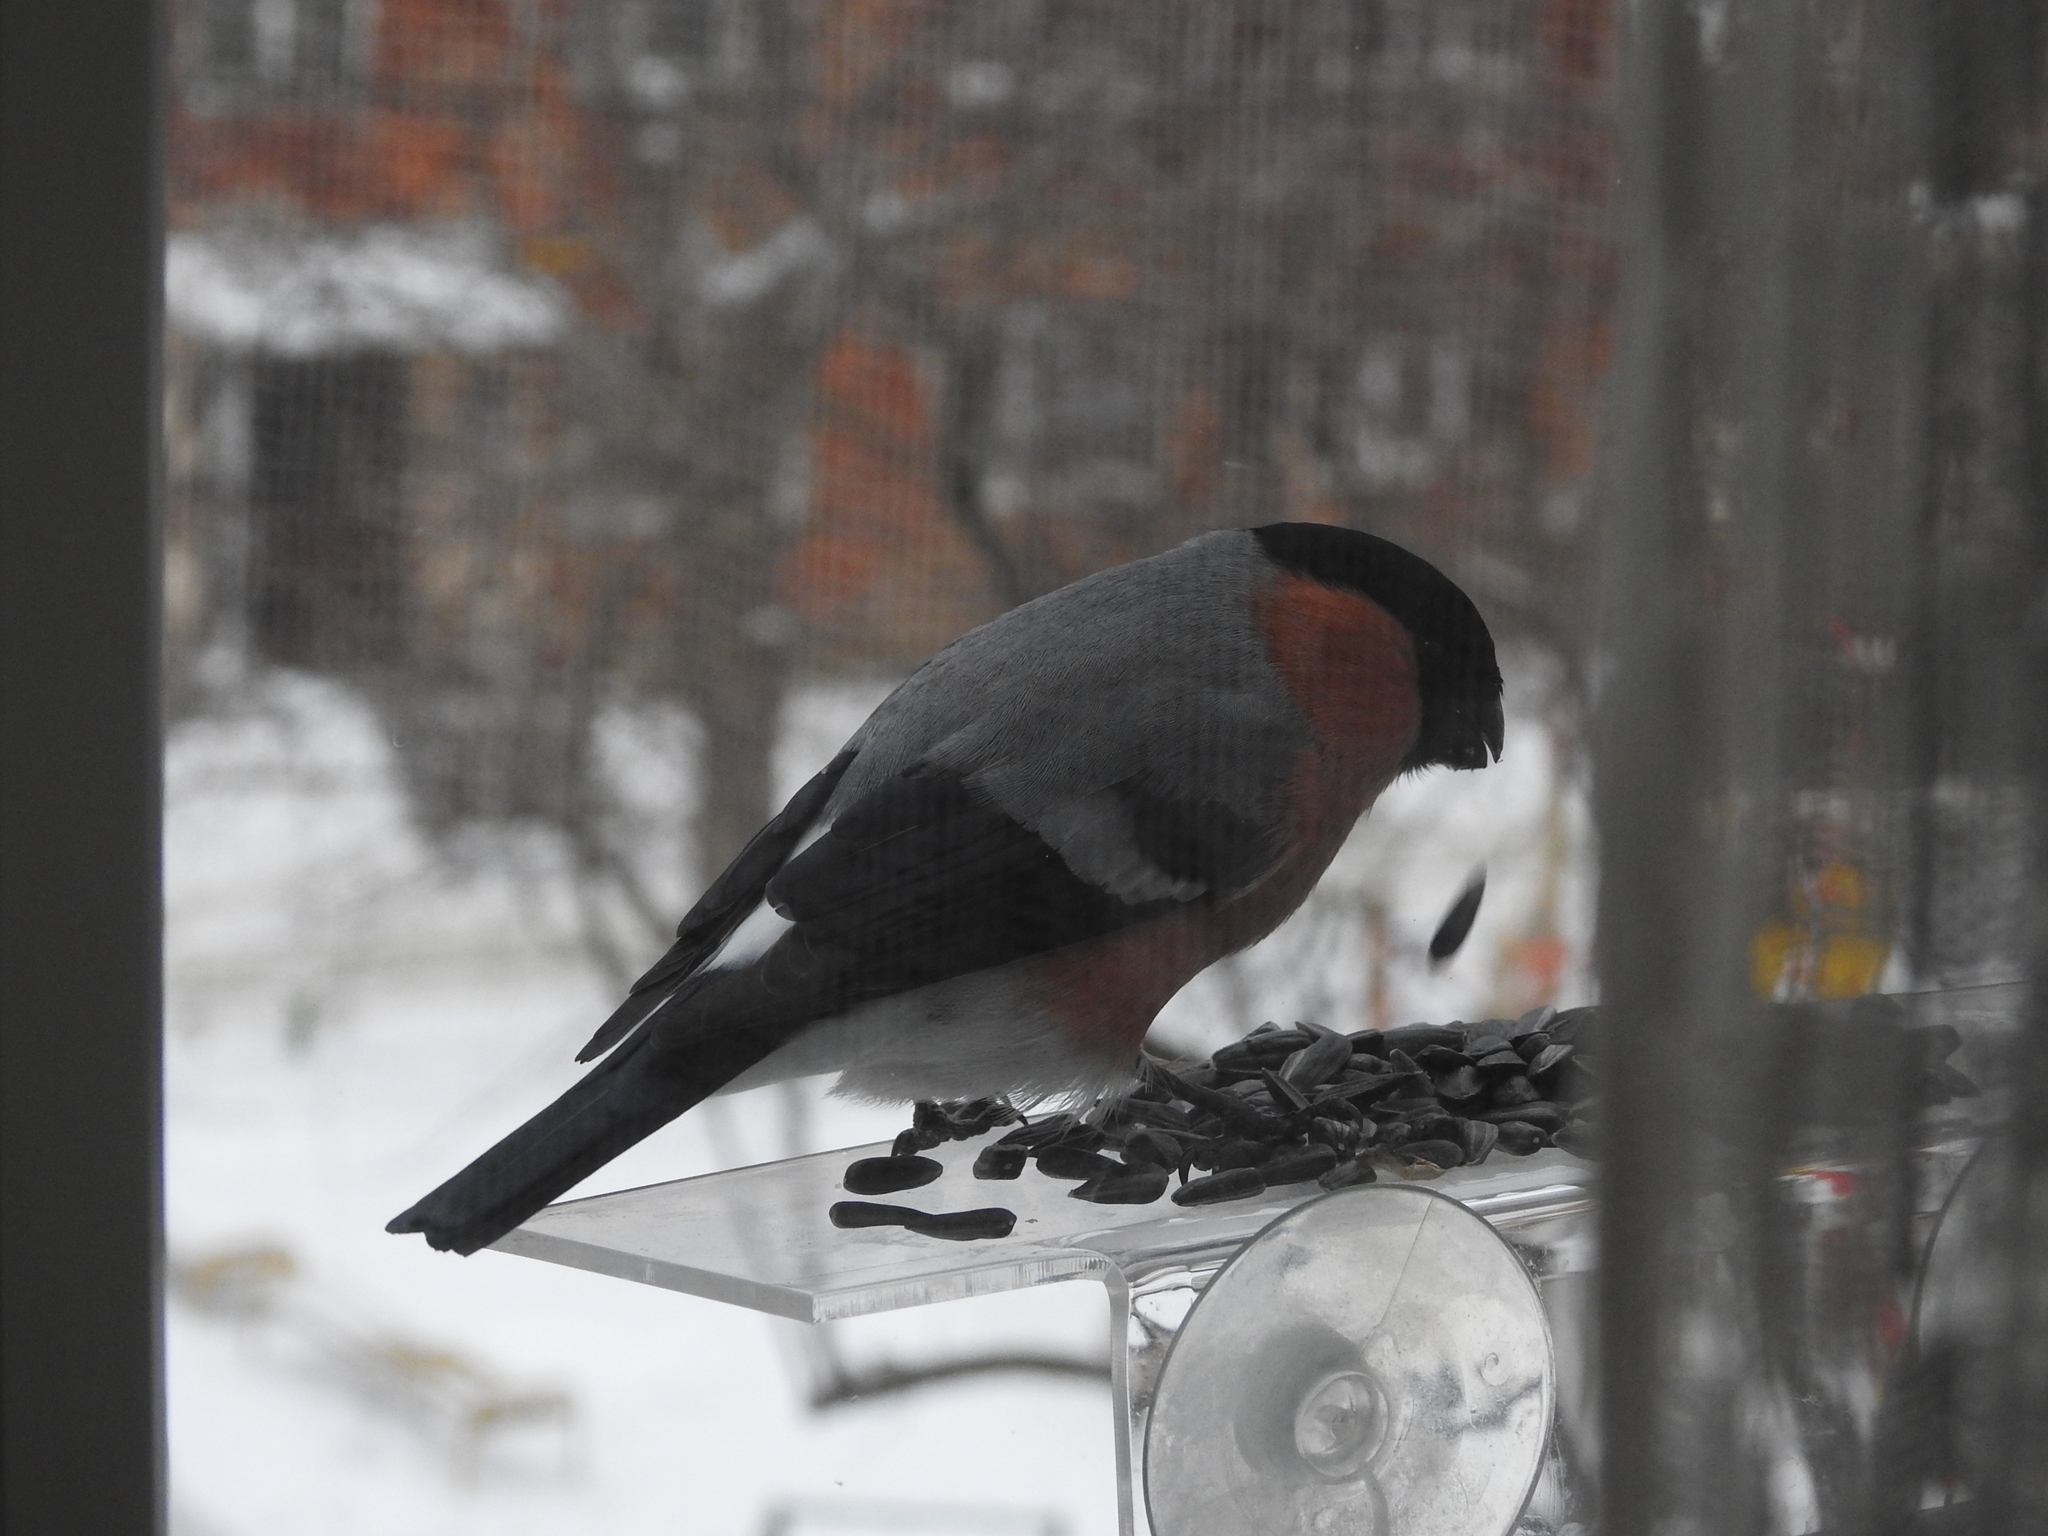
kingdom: Animalia
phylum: Chordata
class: Aves
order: Passeriformes
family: Fringillidae
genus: Pyrrhula
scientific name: Pyrrhula pyrrhula
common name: Eurasian bullfinch
